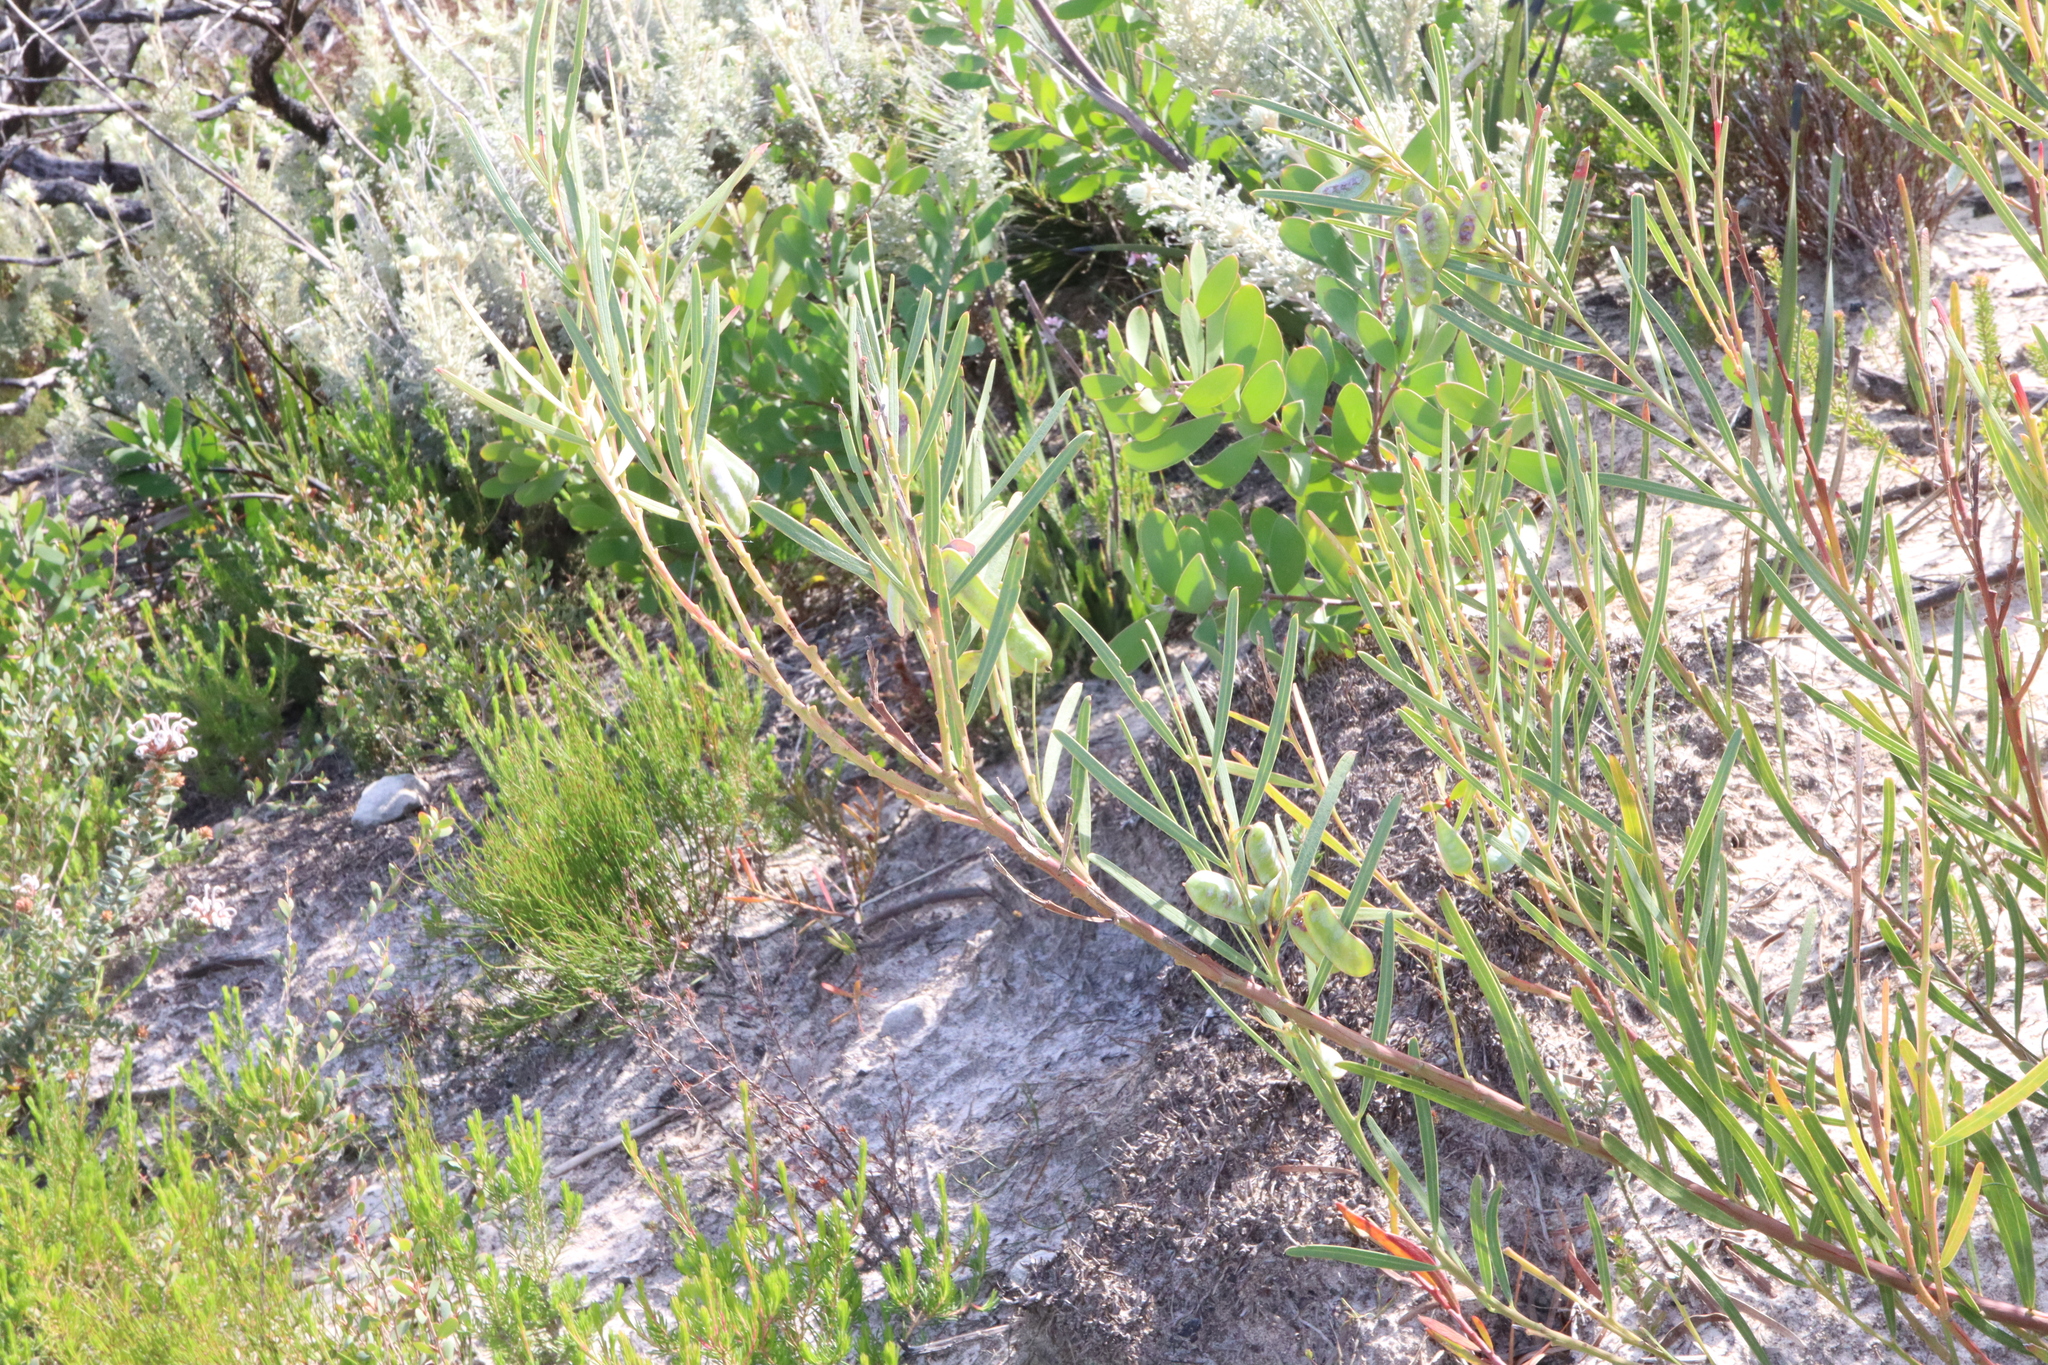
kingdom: Plantae
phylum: Tracheophyta
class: Magnoliopsida
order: Fabales
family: Fabaceae
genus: Acacia
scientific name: Acacia suaveolens
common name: Sweet acacia
